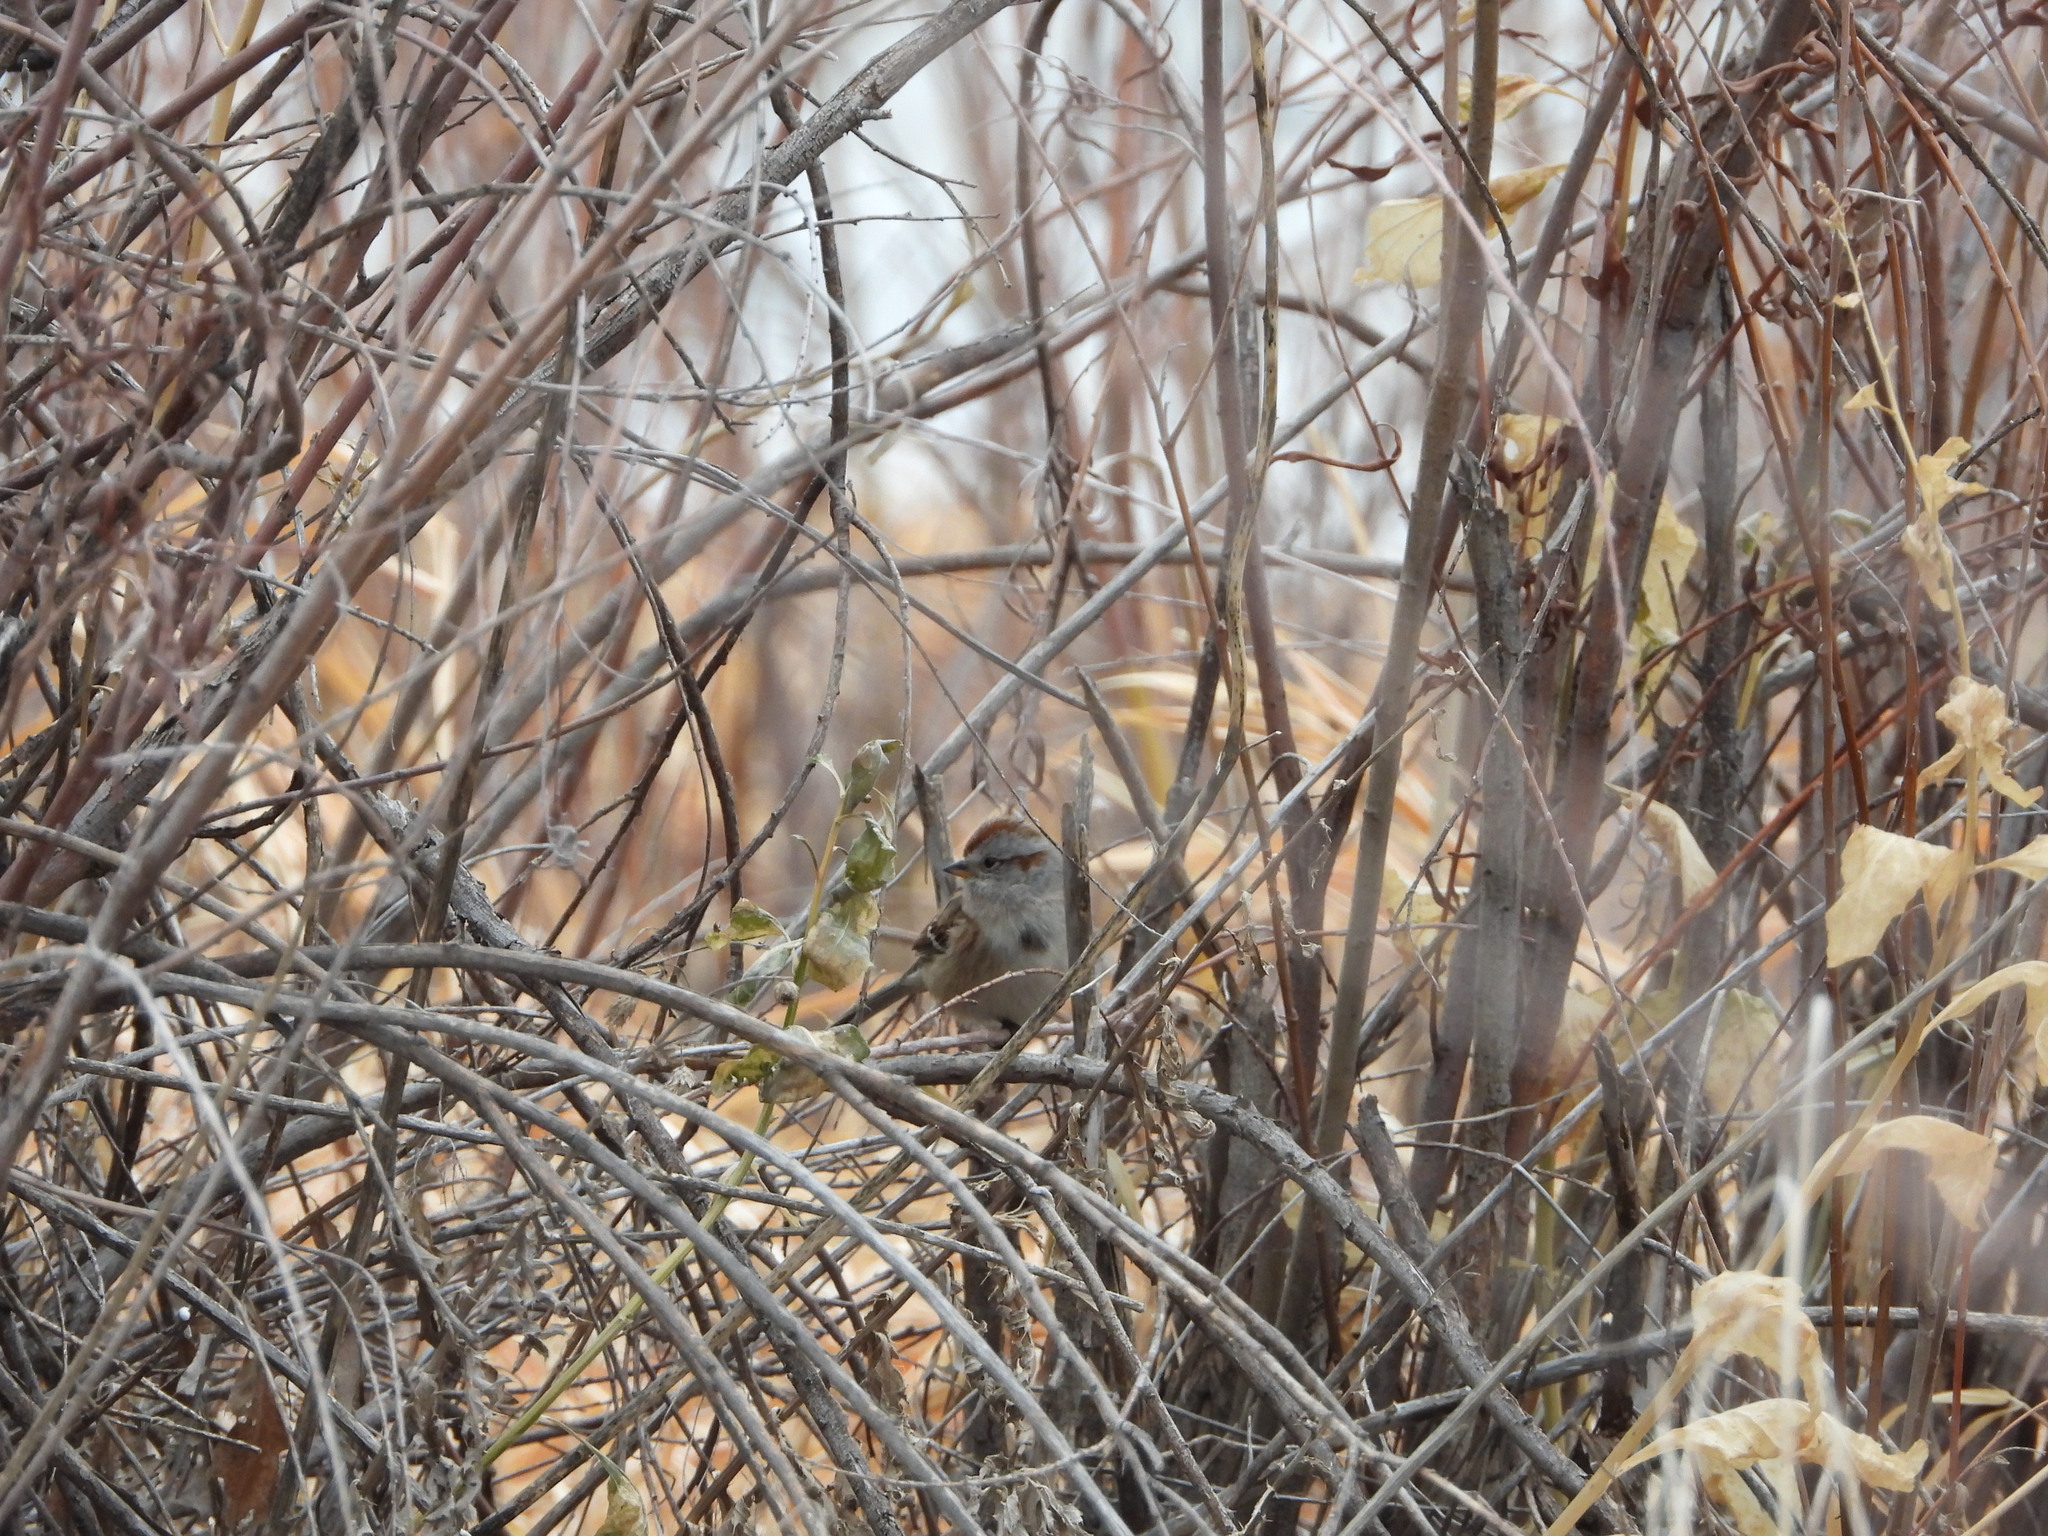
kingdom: Animalia
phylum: Chordata
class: Aves
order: Passeriformes
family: Passerellidae
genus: Spizelloides
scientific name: Spizelloides arborea
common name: American tree sparrow
